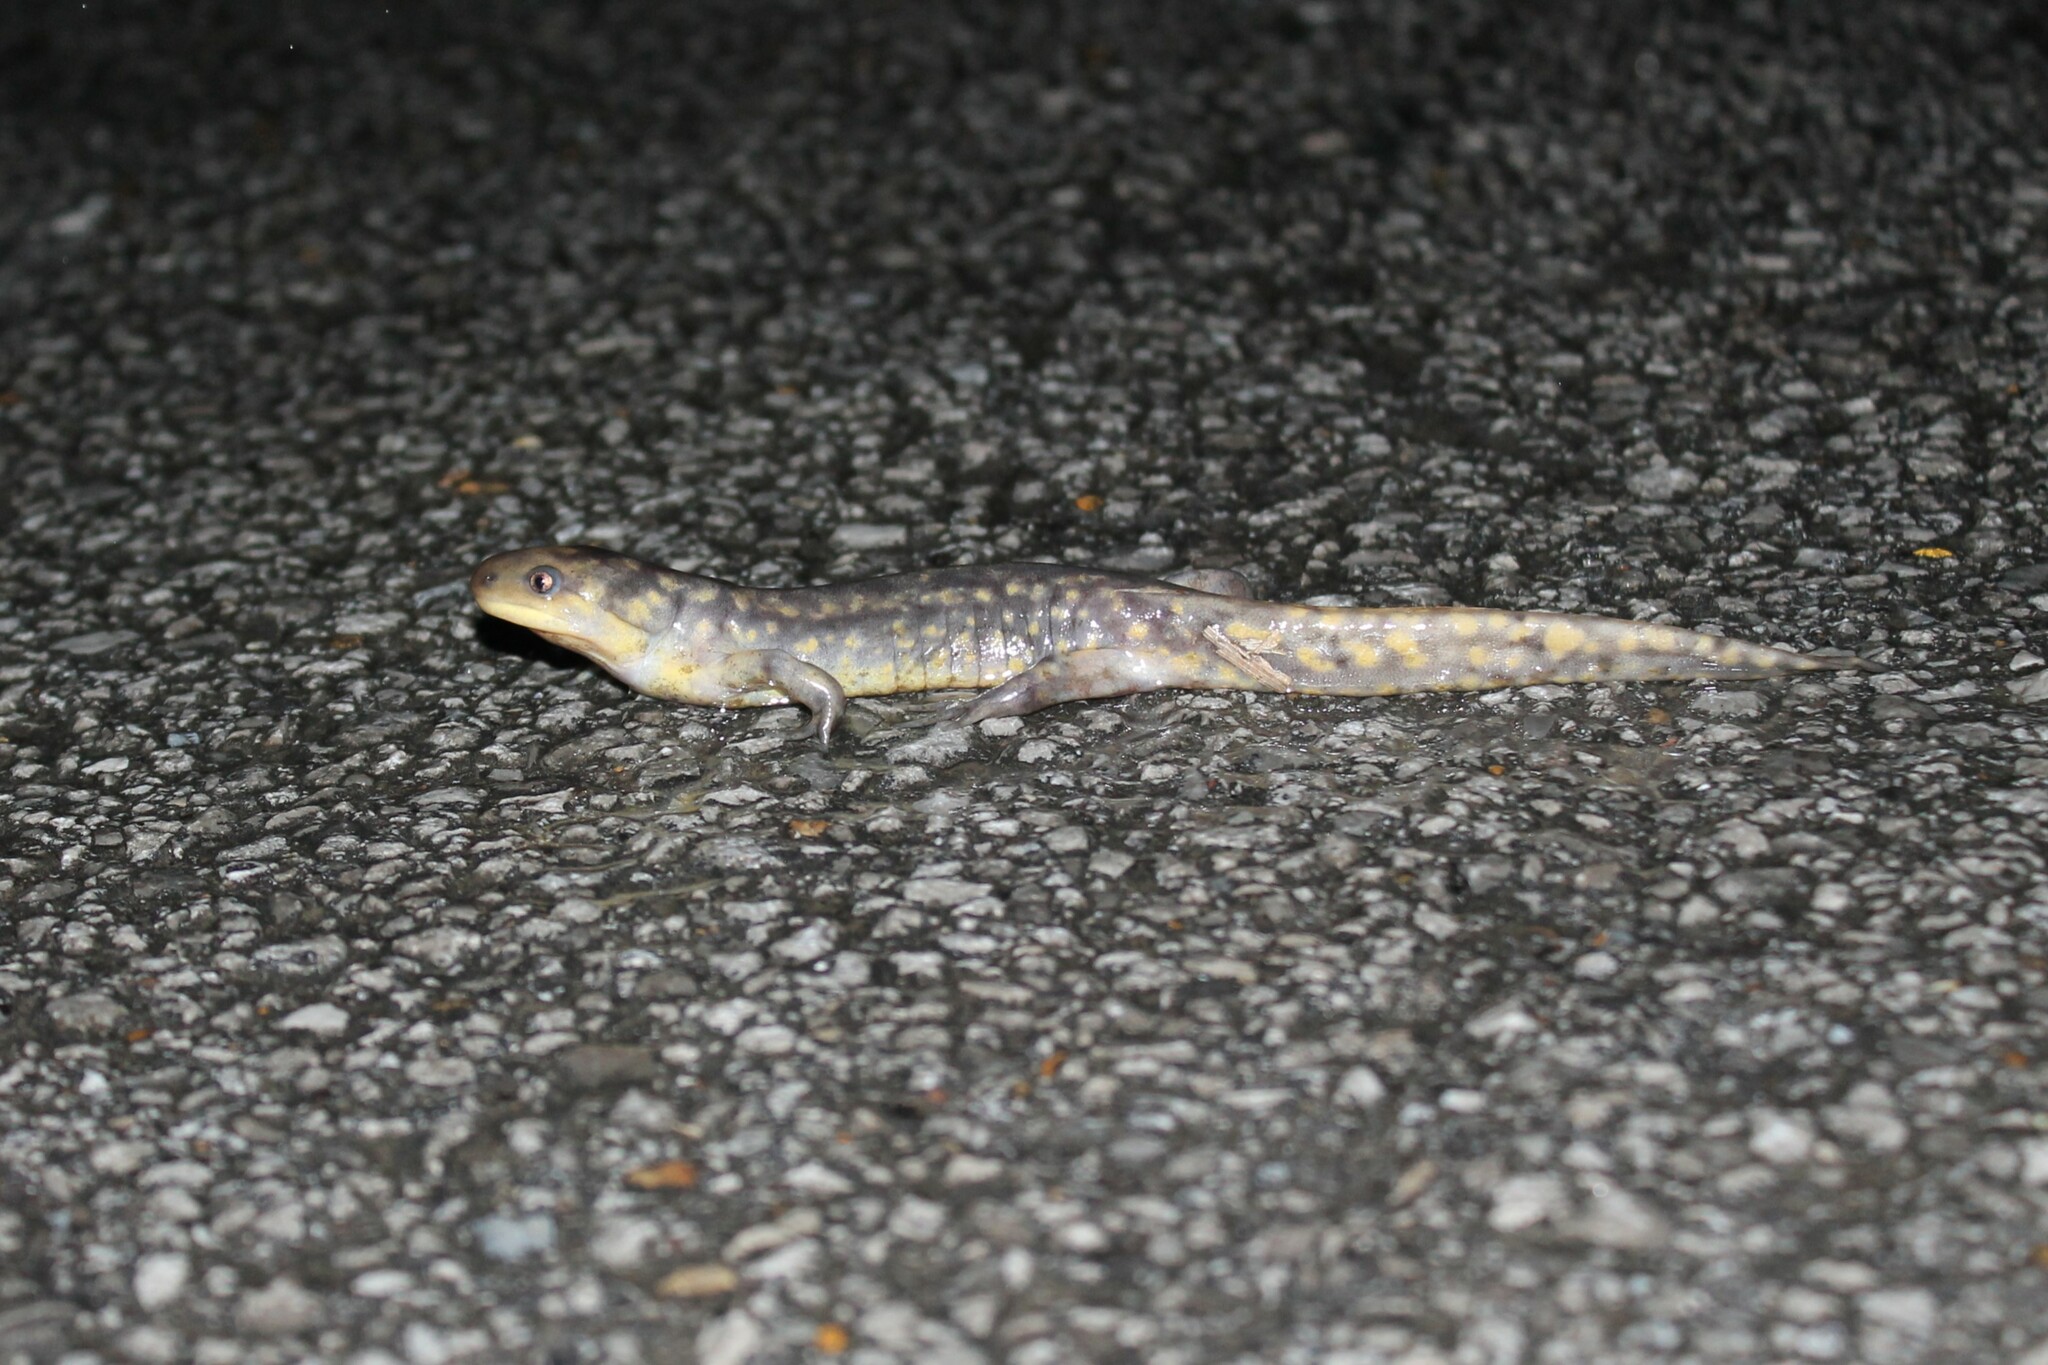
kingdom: Animalia
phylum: Chordata
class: Amphibia
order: Caudata
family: Ambystomatidae
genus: Ambystoma
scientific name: Ambystoma tigrinum
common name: Tiger salamander
